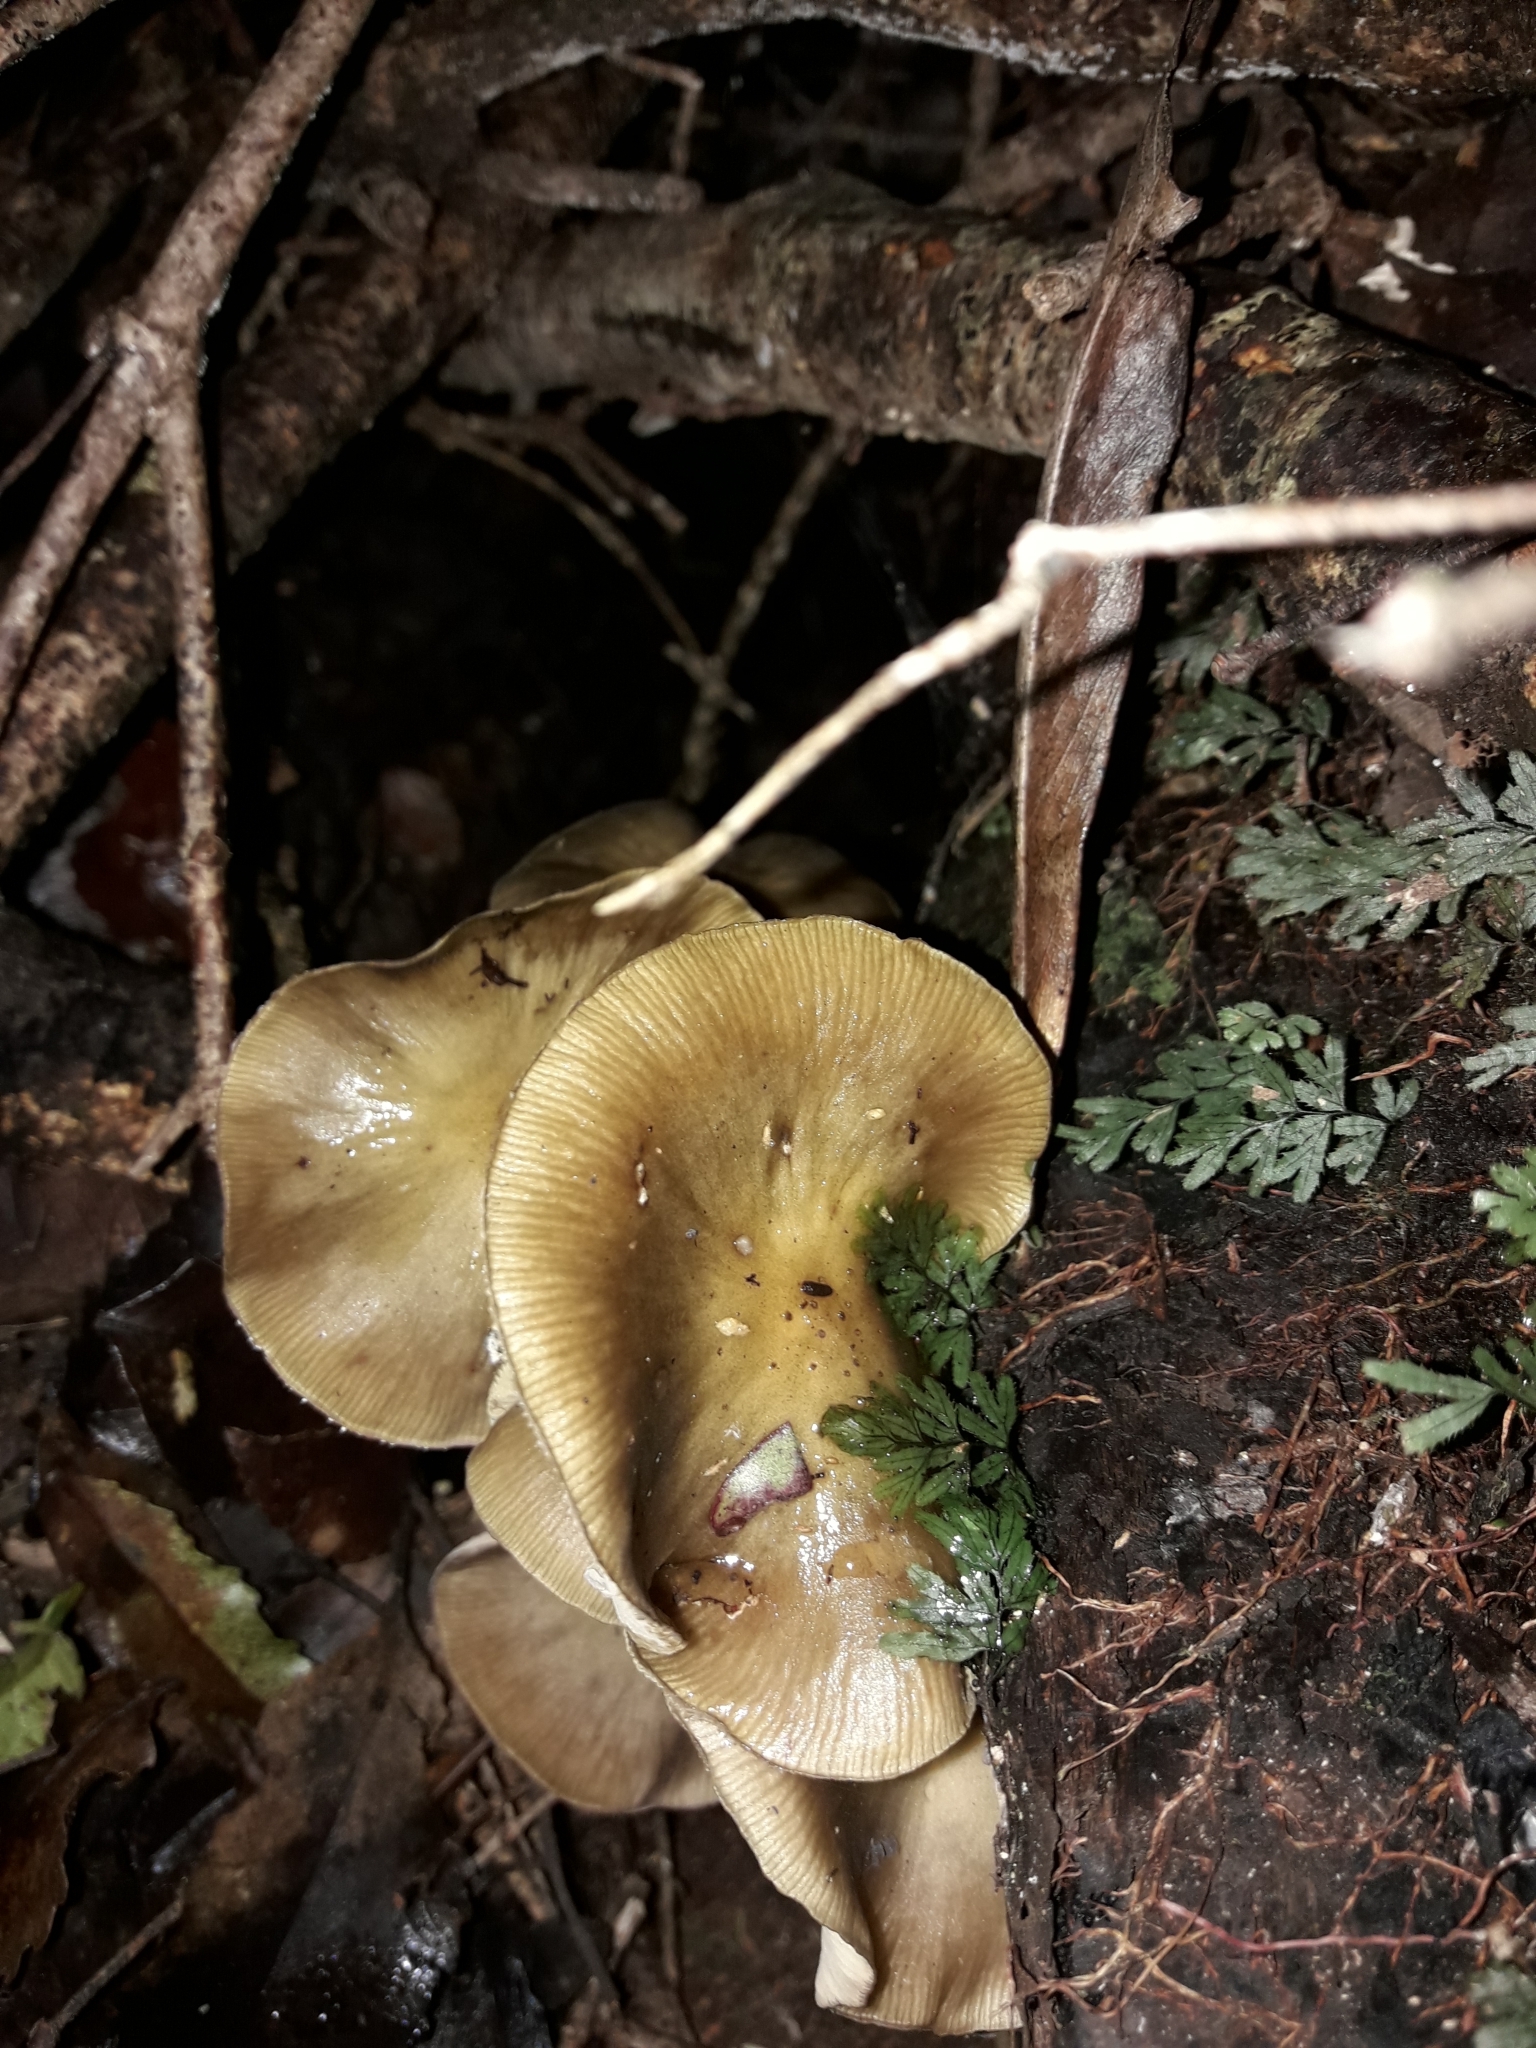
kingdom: Fungi
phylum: Basidiomycota
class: Agaricomycetes
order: Agaricales
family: Physalacriaceae
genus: Armillaria
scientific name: Armillaria novae-zelandiae
